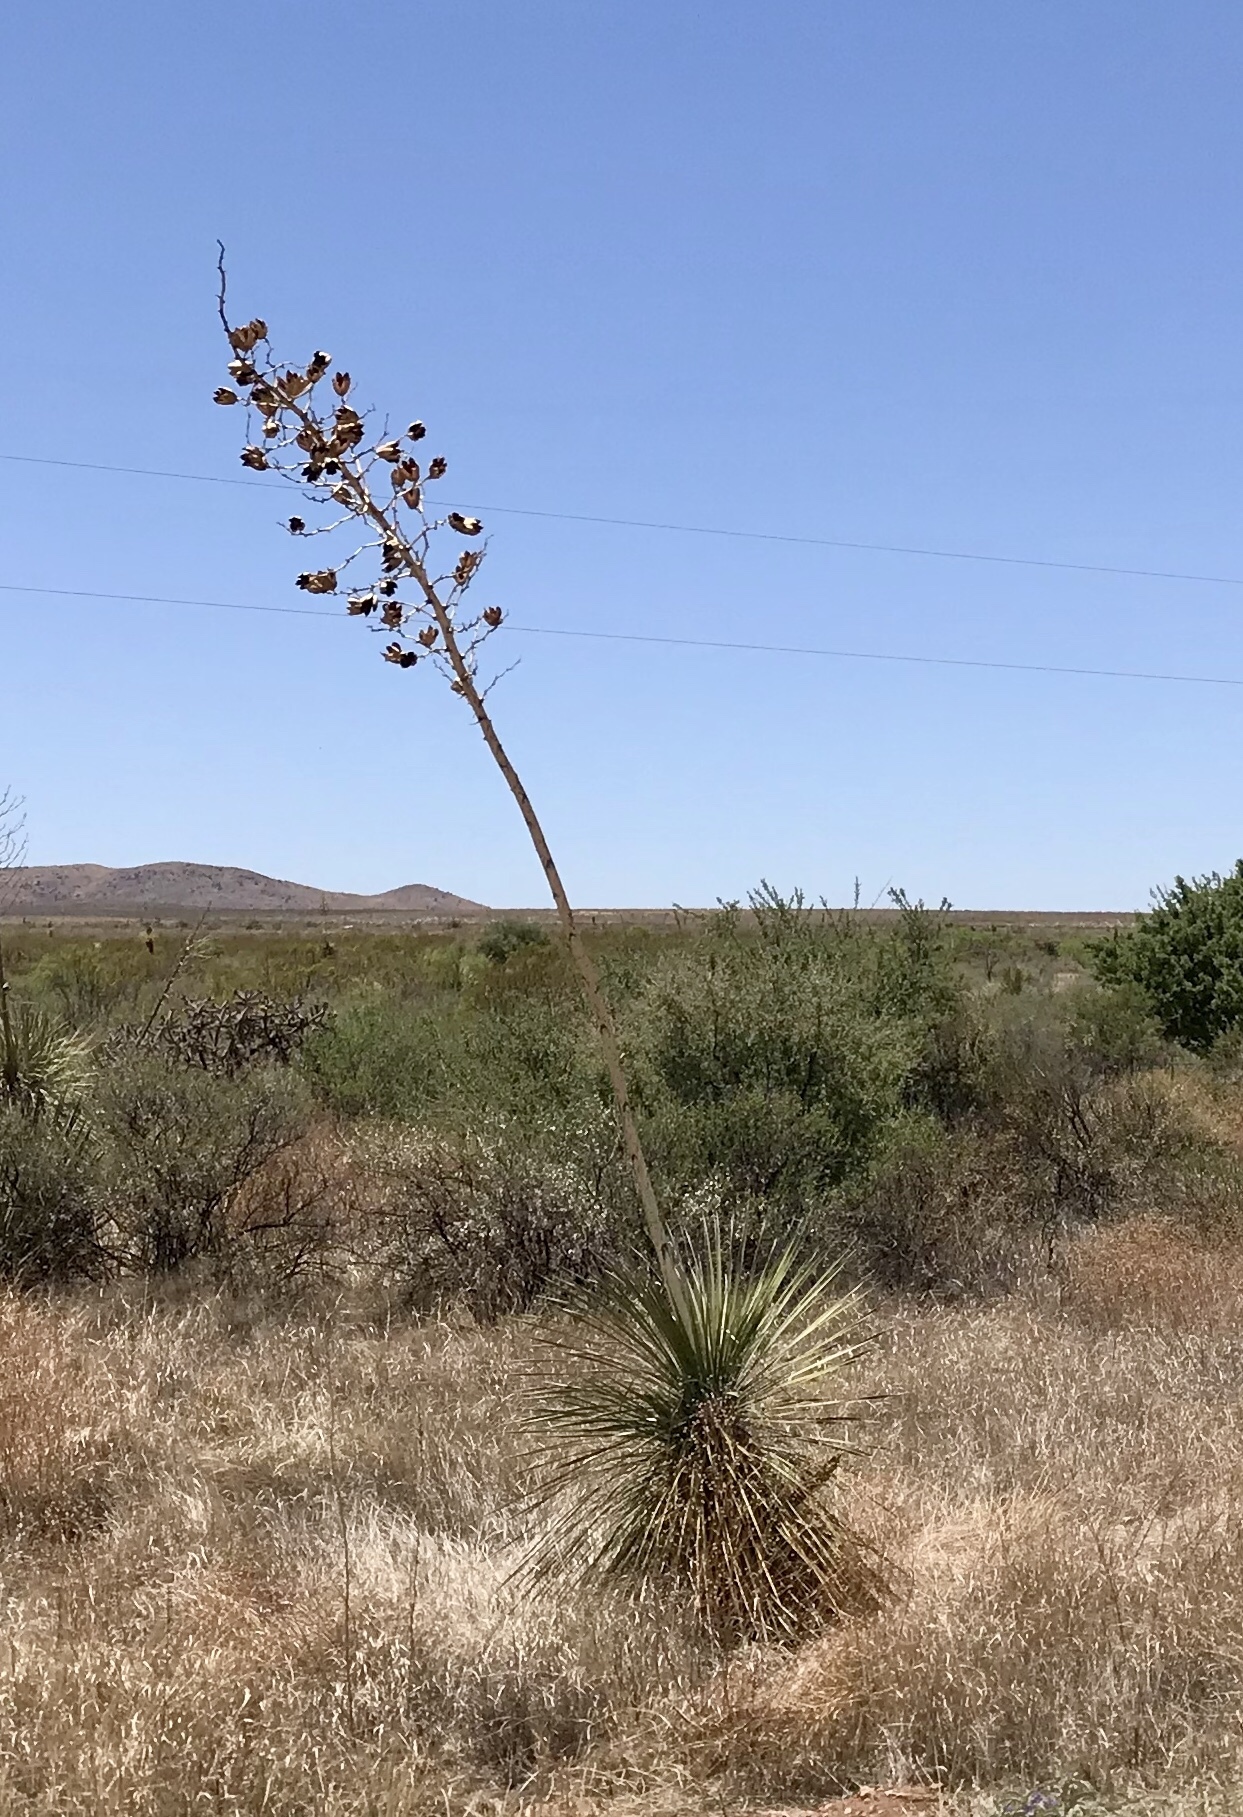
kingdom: Plantae
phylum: Tracheophyta
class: Liliopsida
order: Asparagales
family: Asparagaceae
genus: Yucca
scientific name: Yucca elata
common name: Palmella
